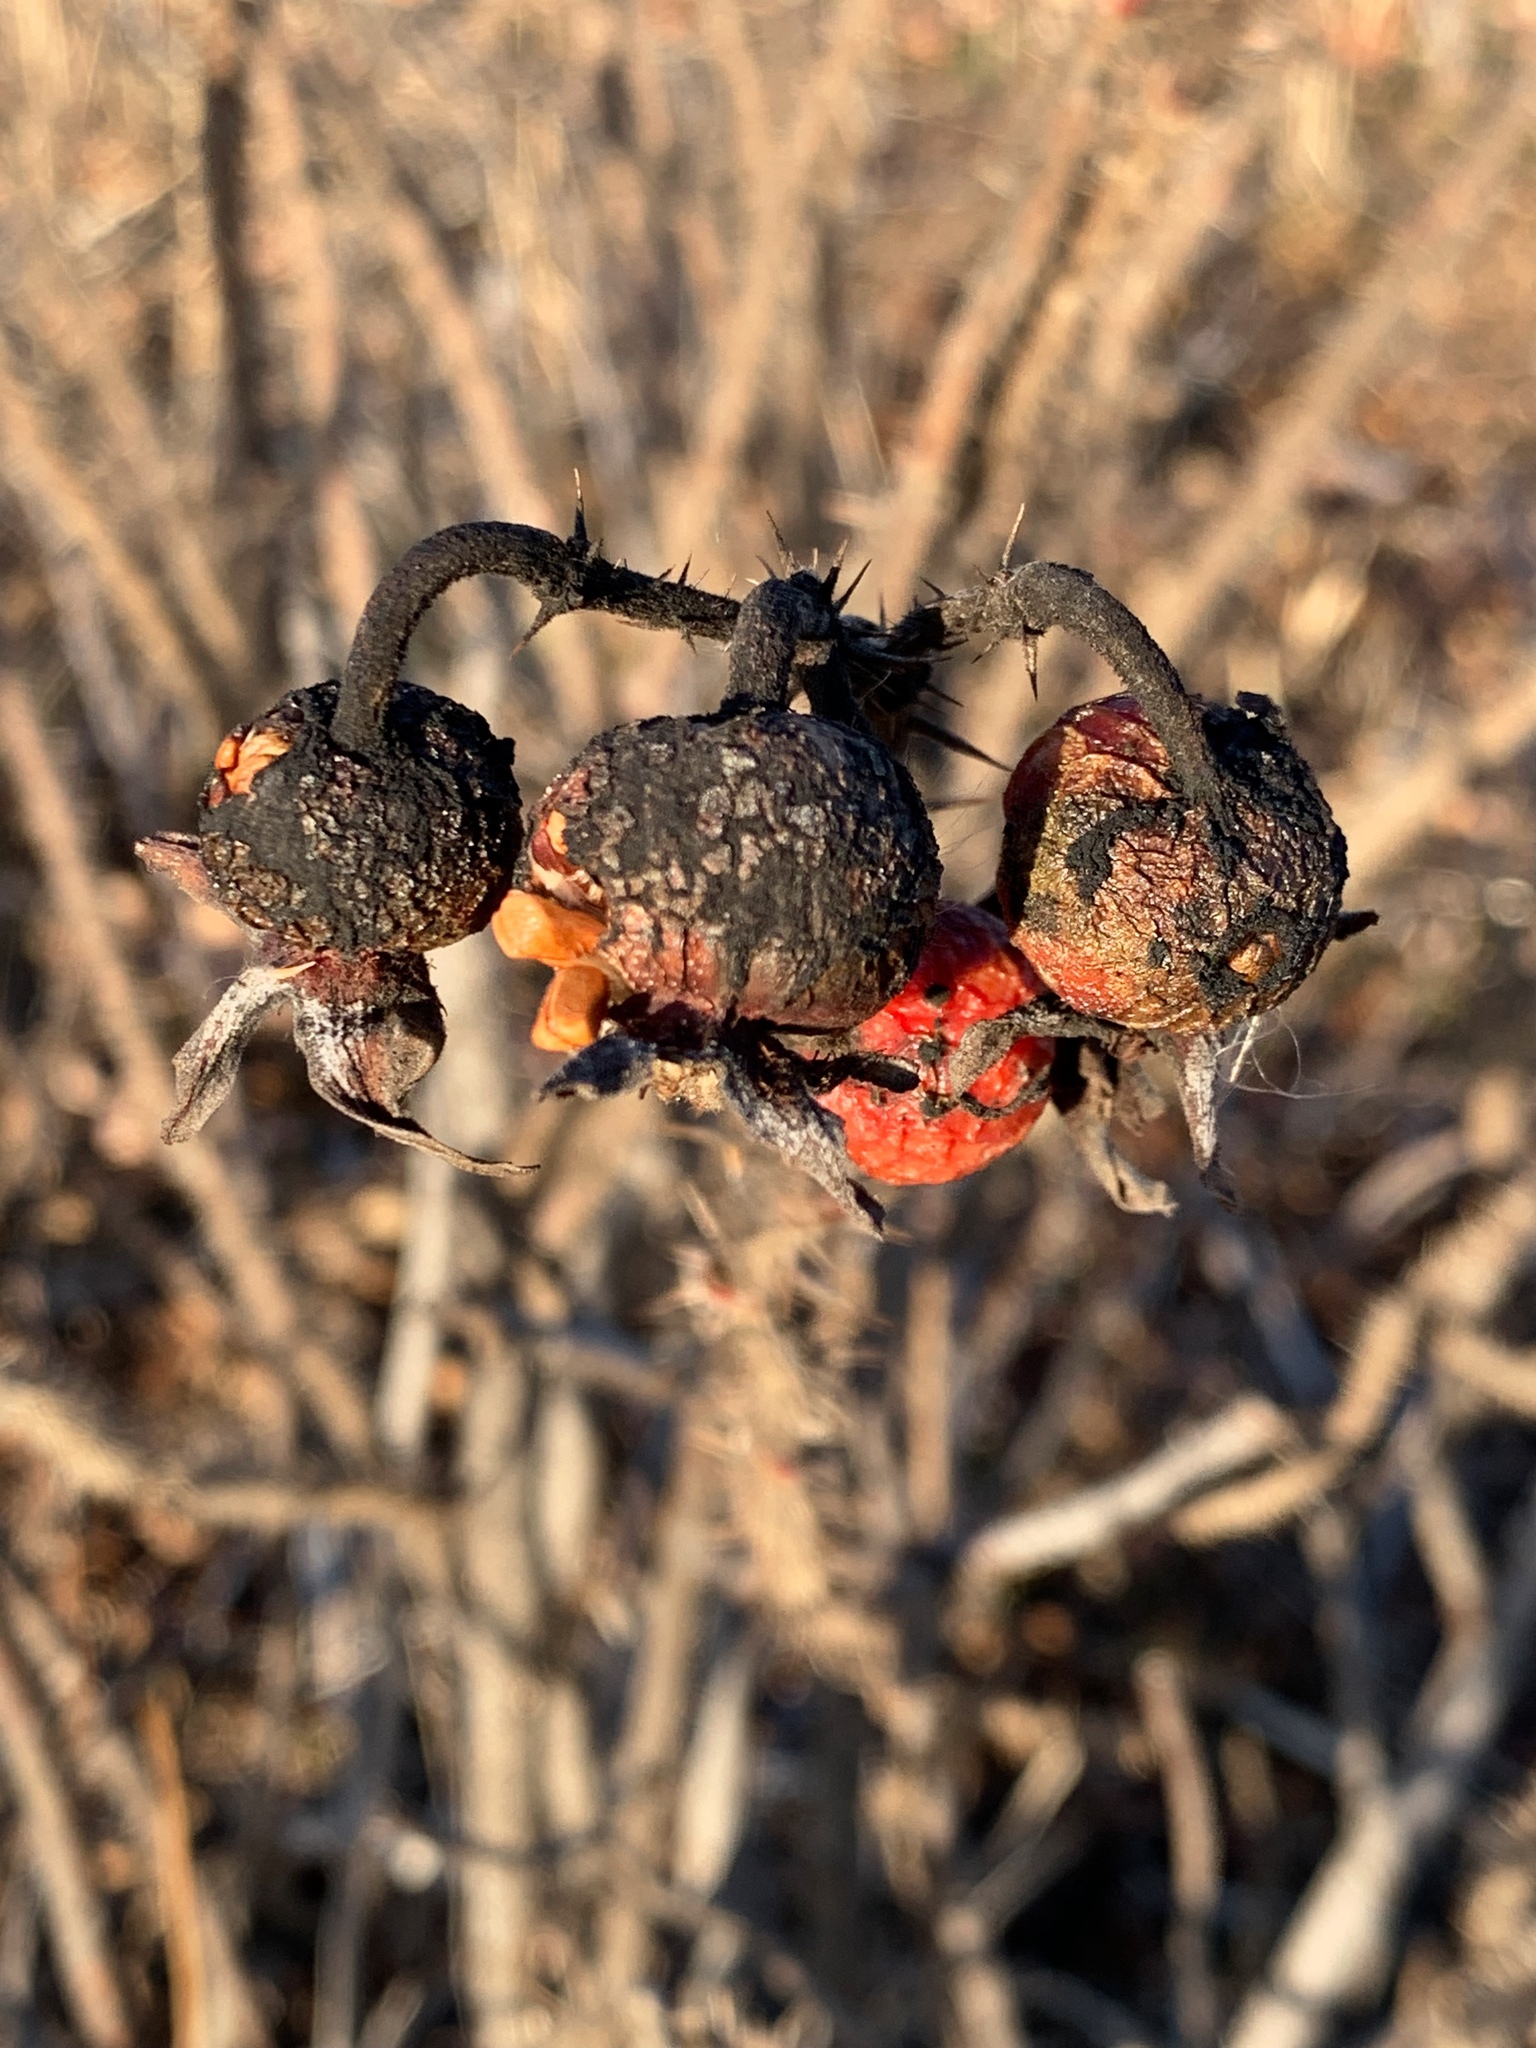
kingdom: Plantae
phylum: Tracheophyta
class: Magnoliopsida
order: Rosales
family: Rosaceae
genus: Rosa
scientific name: Rosa rugosa
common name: Japanese rose
